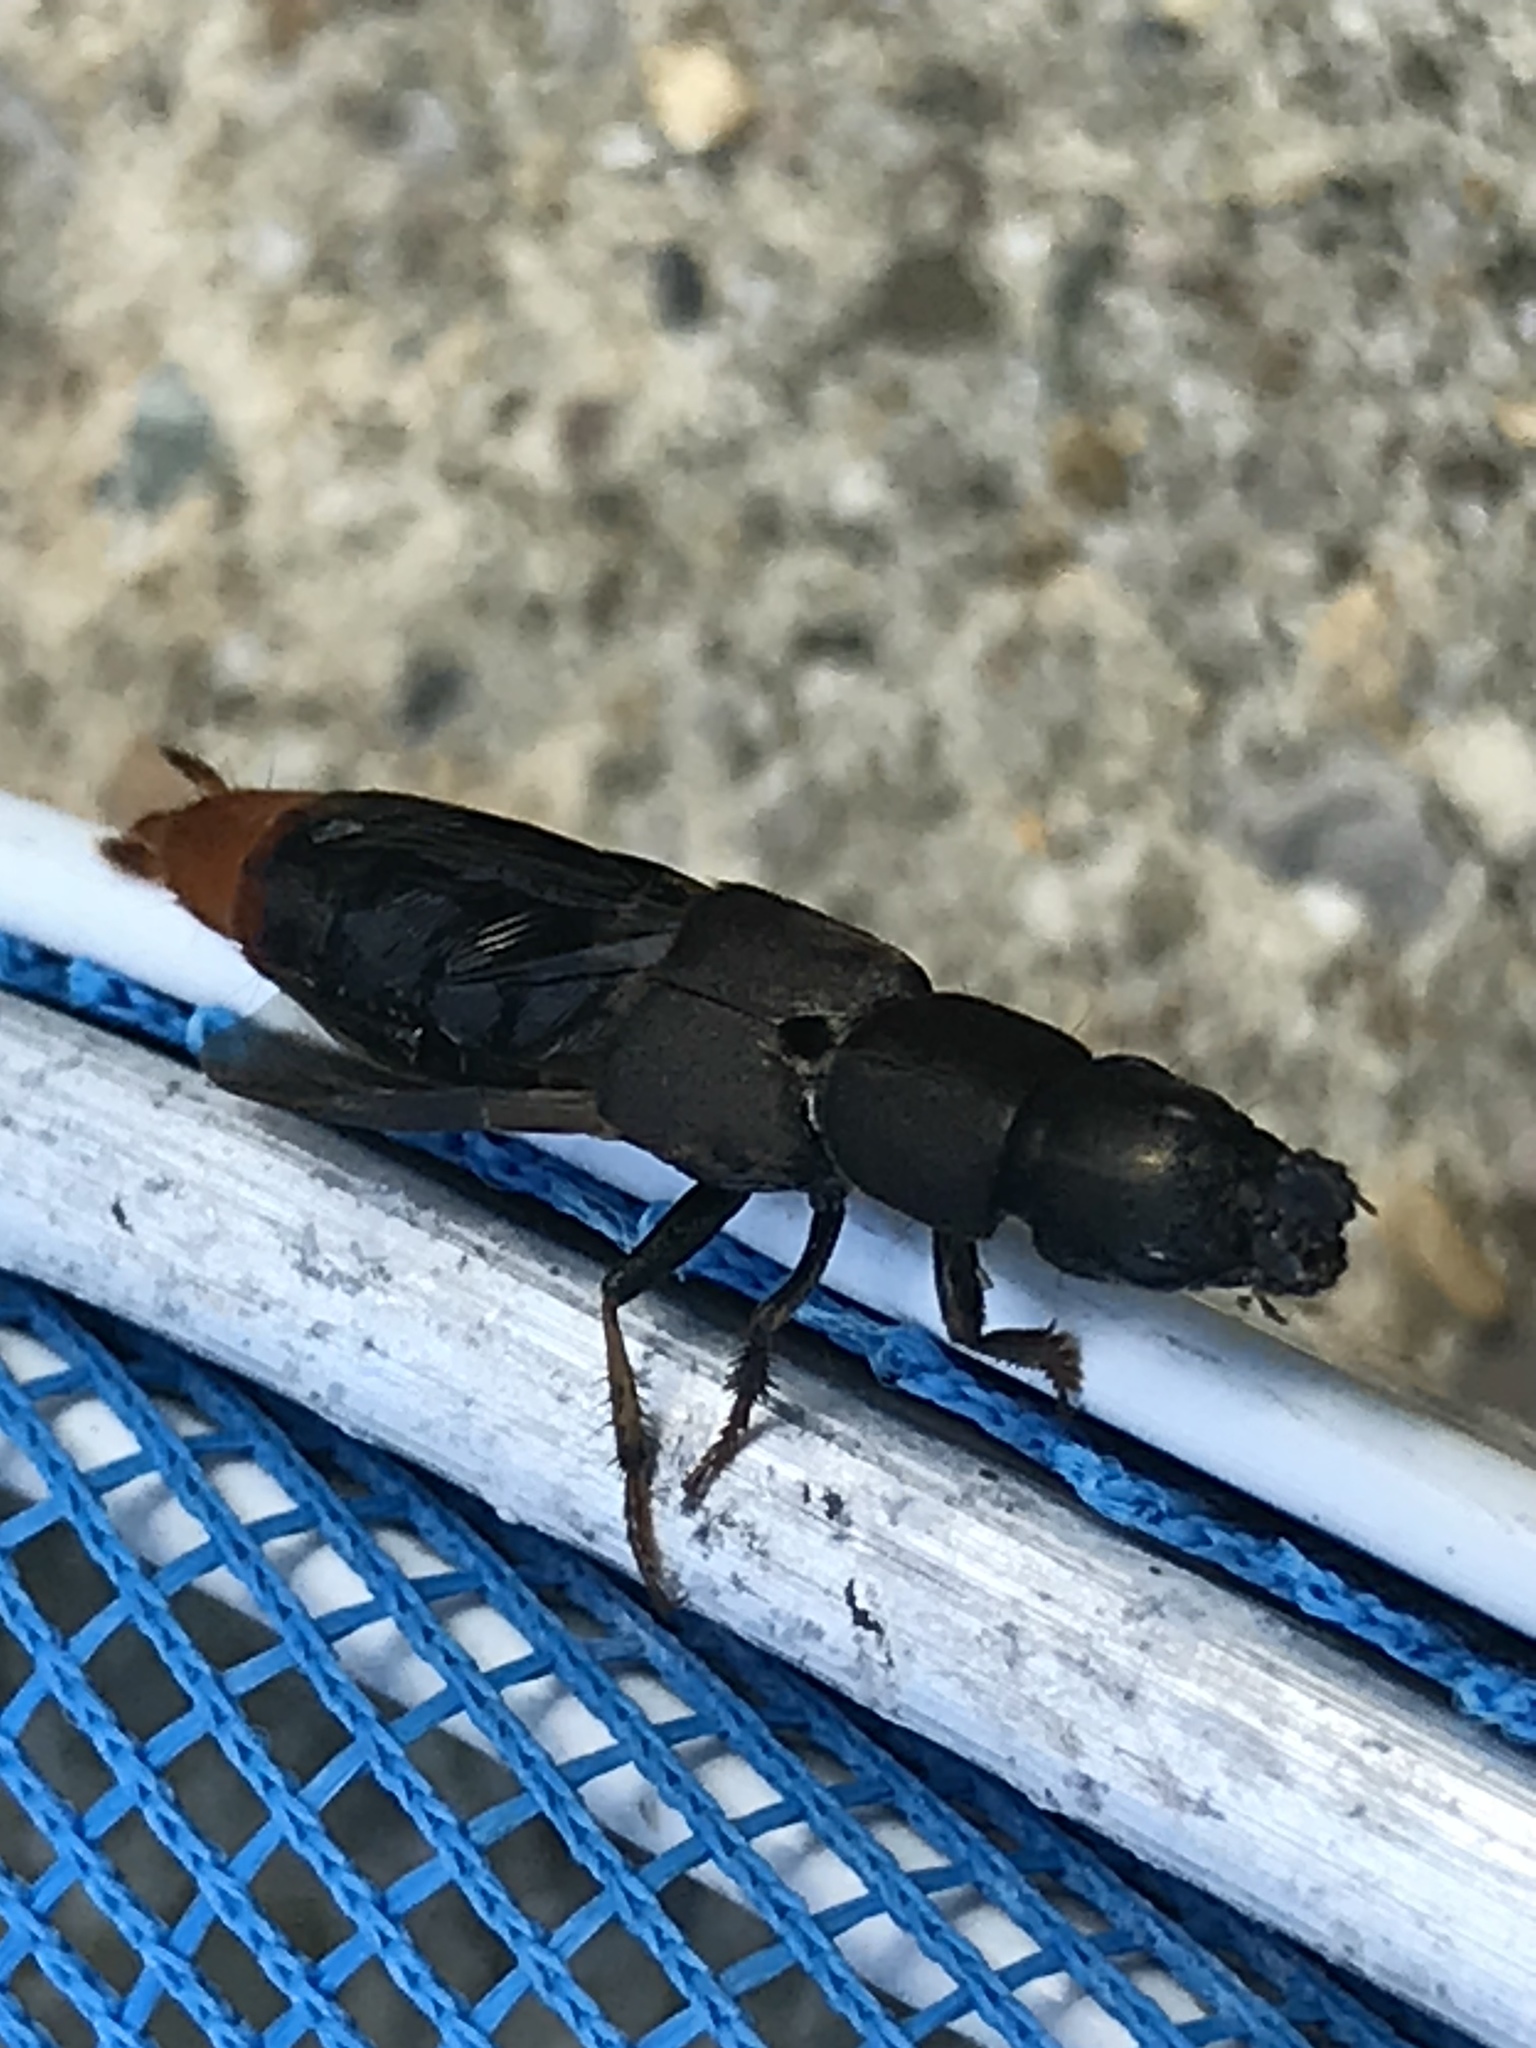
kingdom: Animalia
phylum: Arthropoda
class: Insecta
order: Coleoptera
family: Staphylinidae
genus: Platydracus
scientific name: Platydracus mysticus
